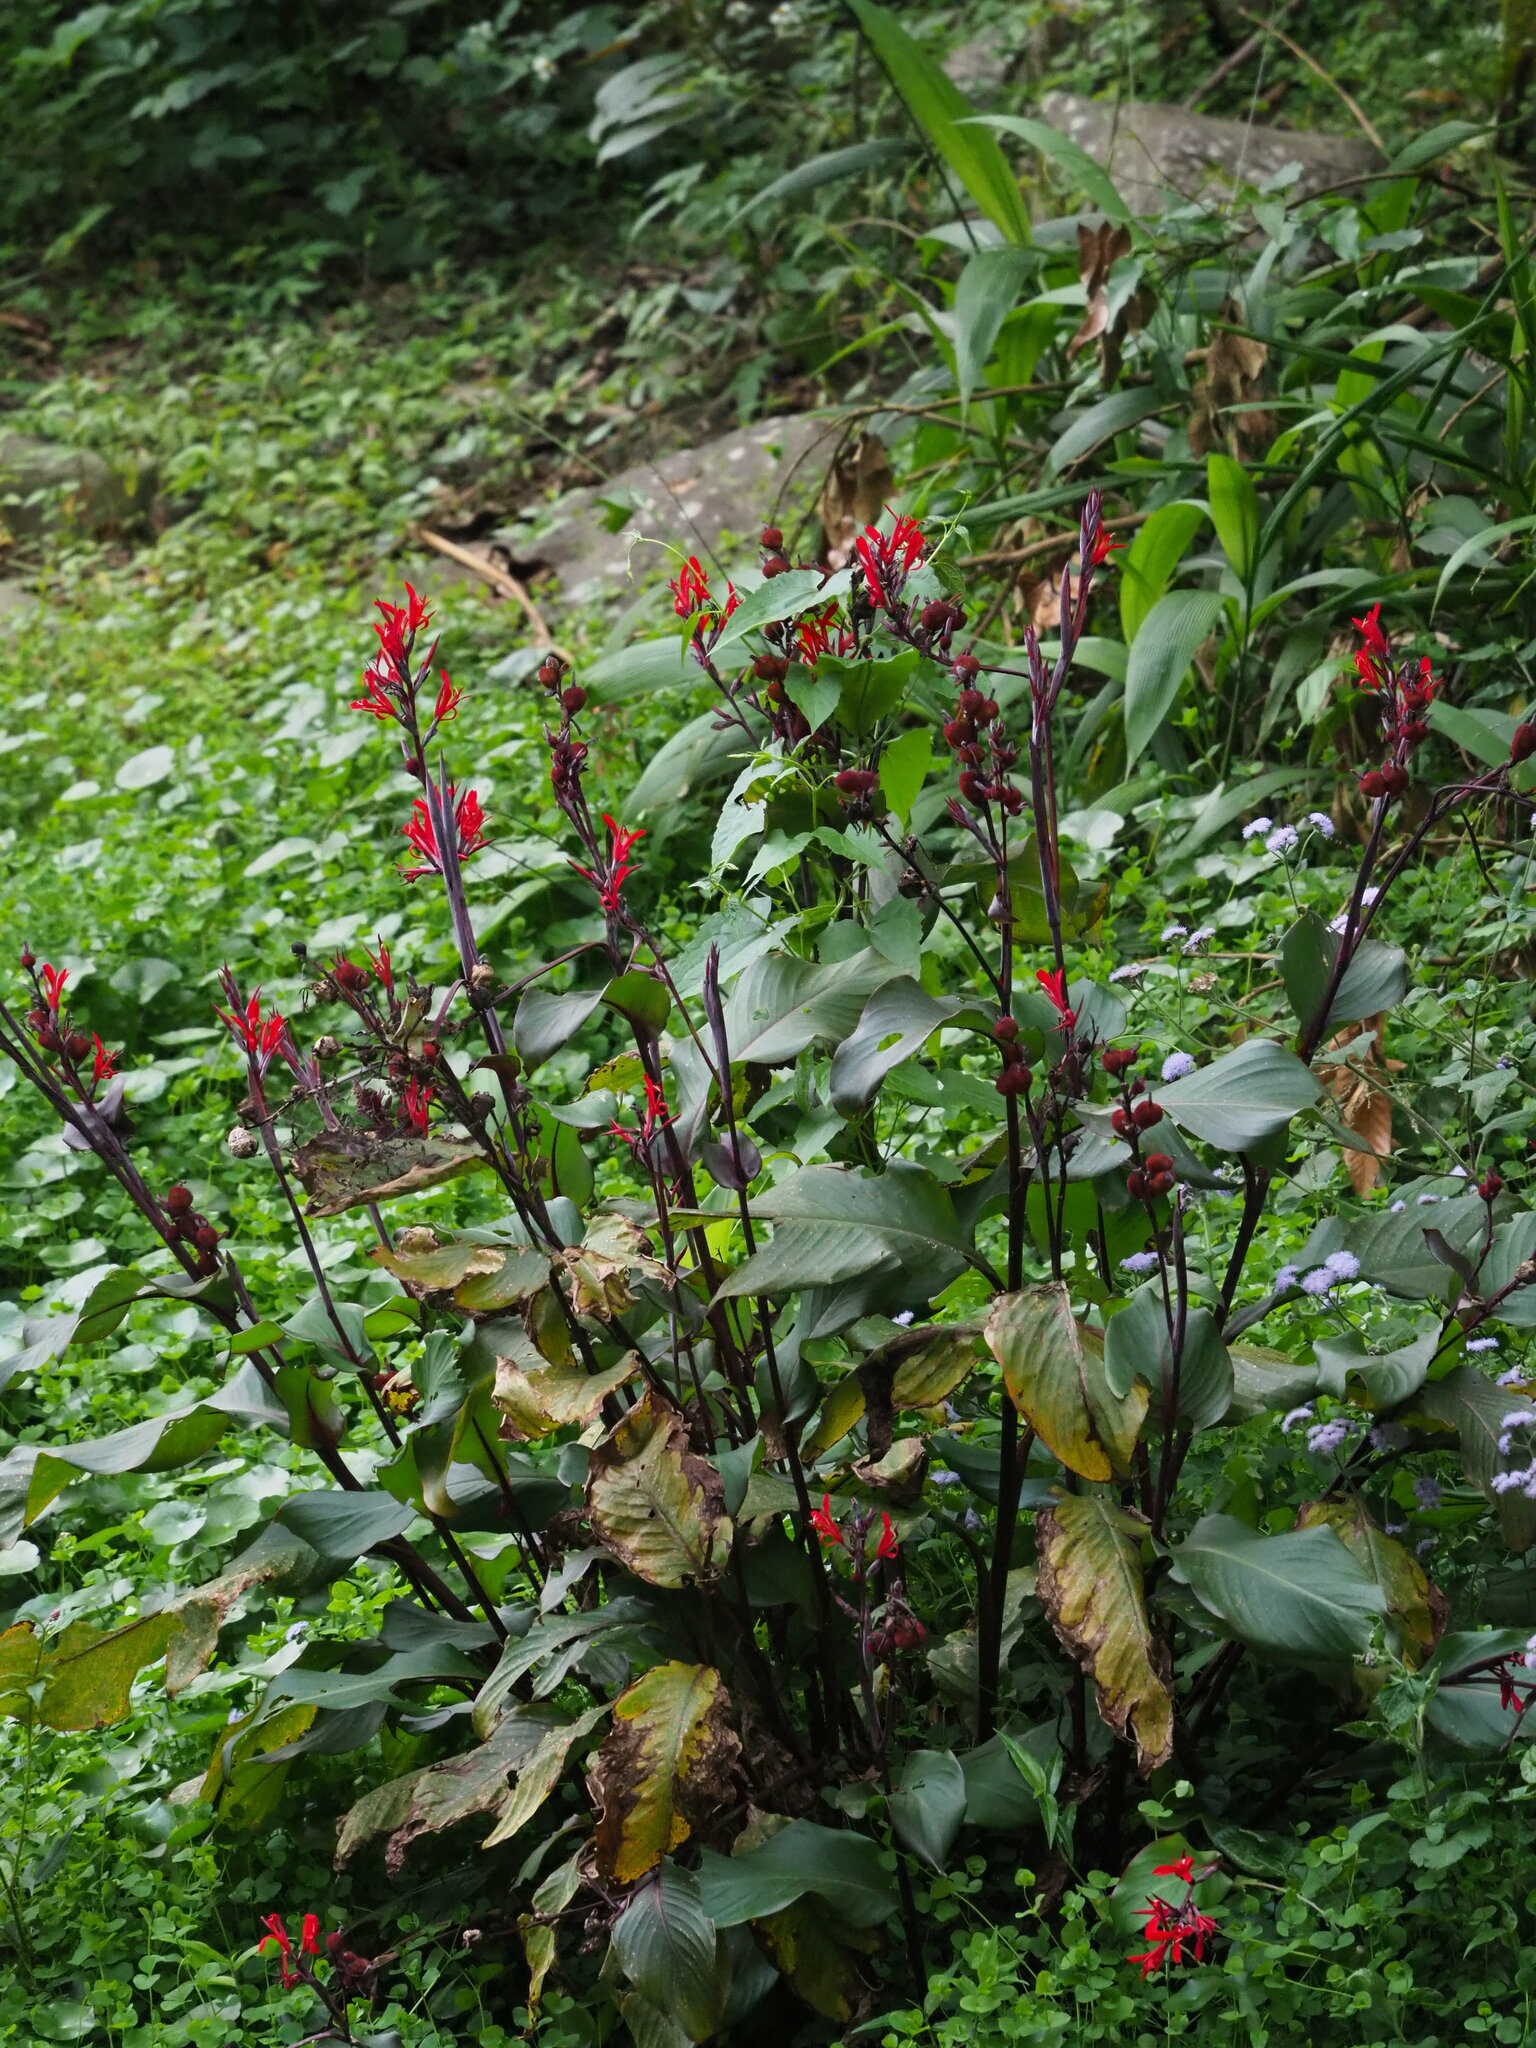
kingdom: Plantae
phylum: Tracheophyta
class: Liliopsida
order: Zingiberales
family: Cannaceae
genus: Canna
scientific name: Canna indica
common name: Indian shot
